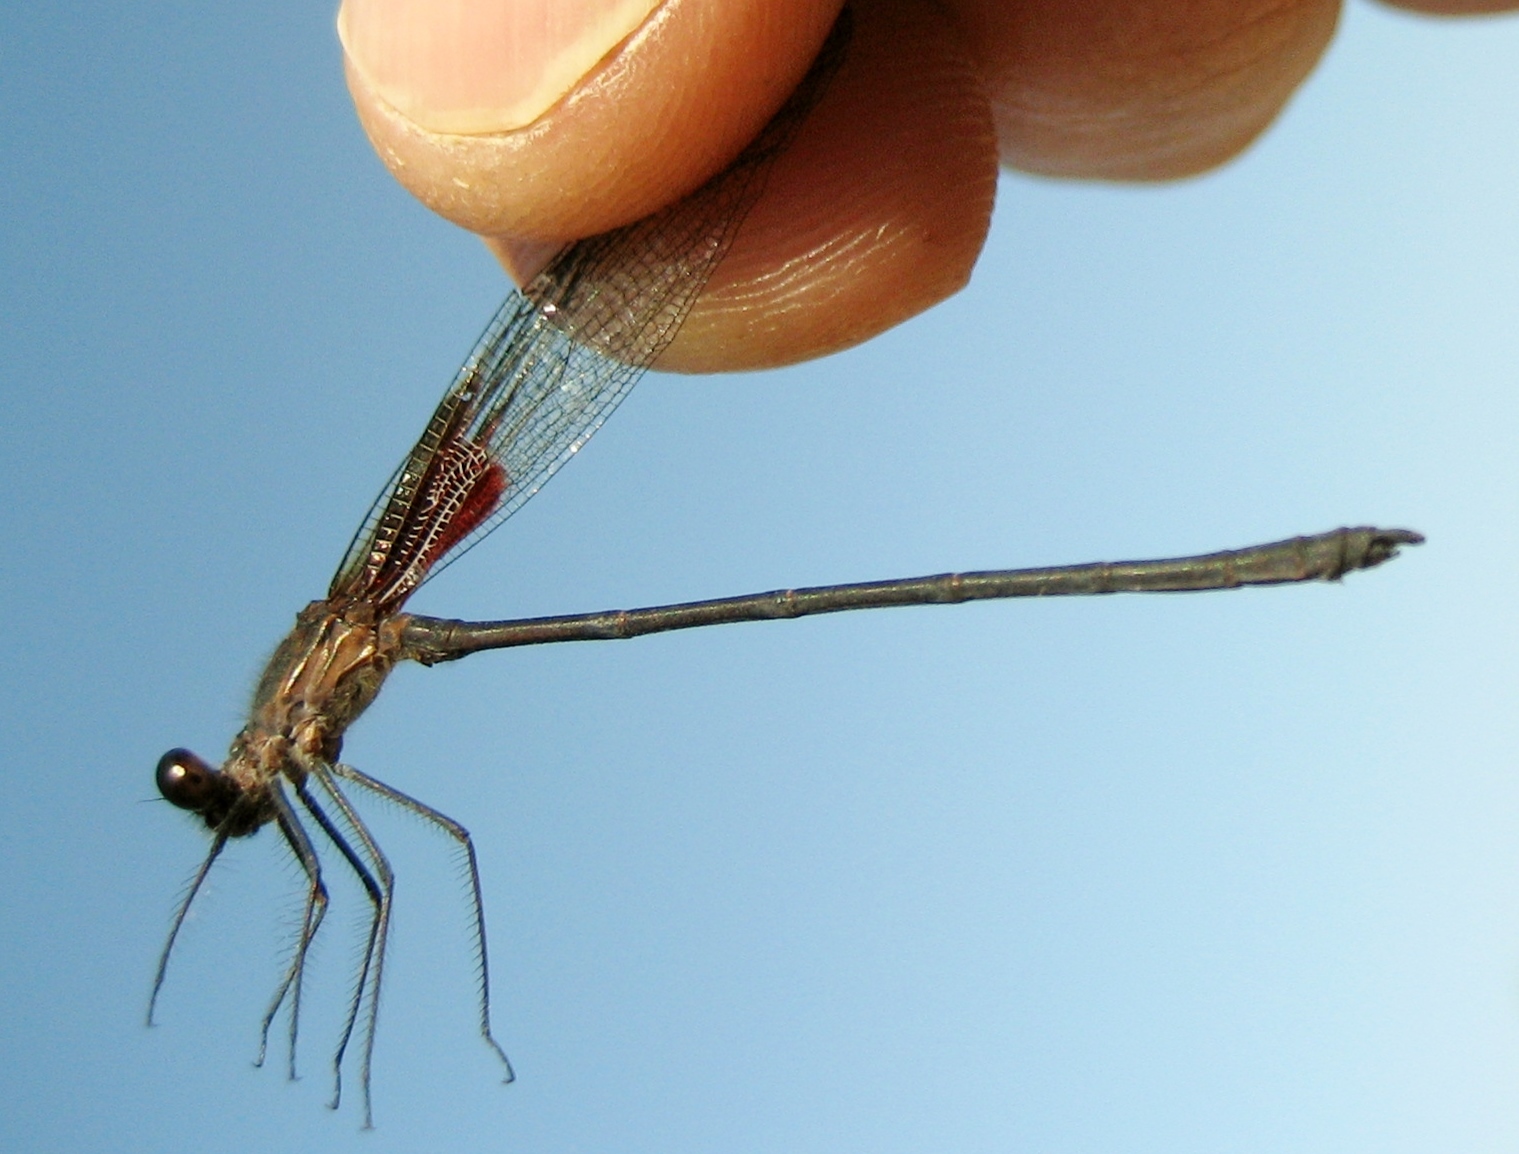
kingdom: Animalia
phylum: Arthropoda
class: Insecta
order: Odonata
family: Calopterygidae
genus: Hetaerina
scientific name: Hetaerina titia
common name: Smoky rubyspot
